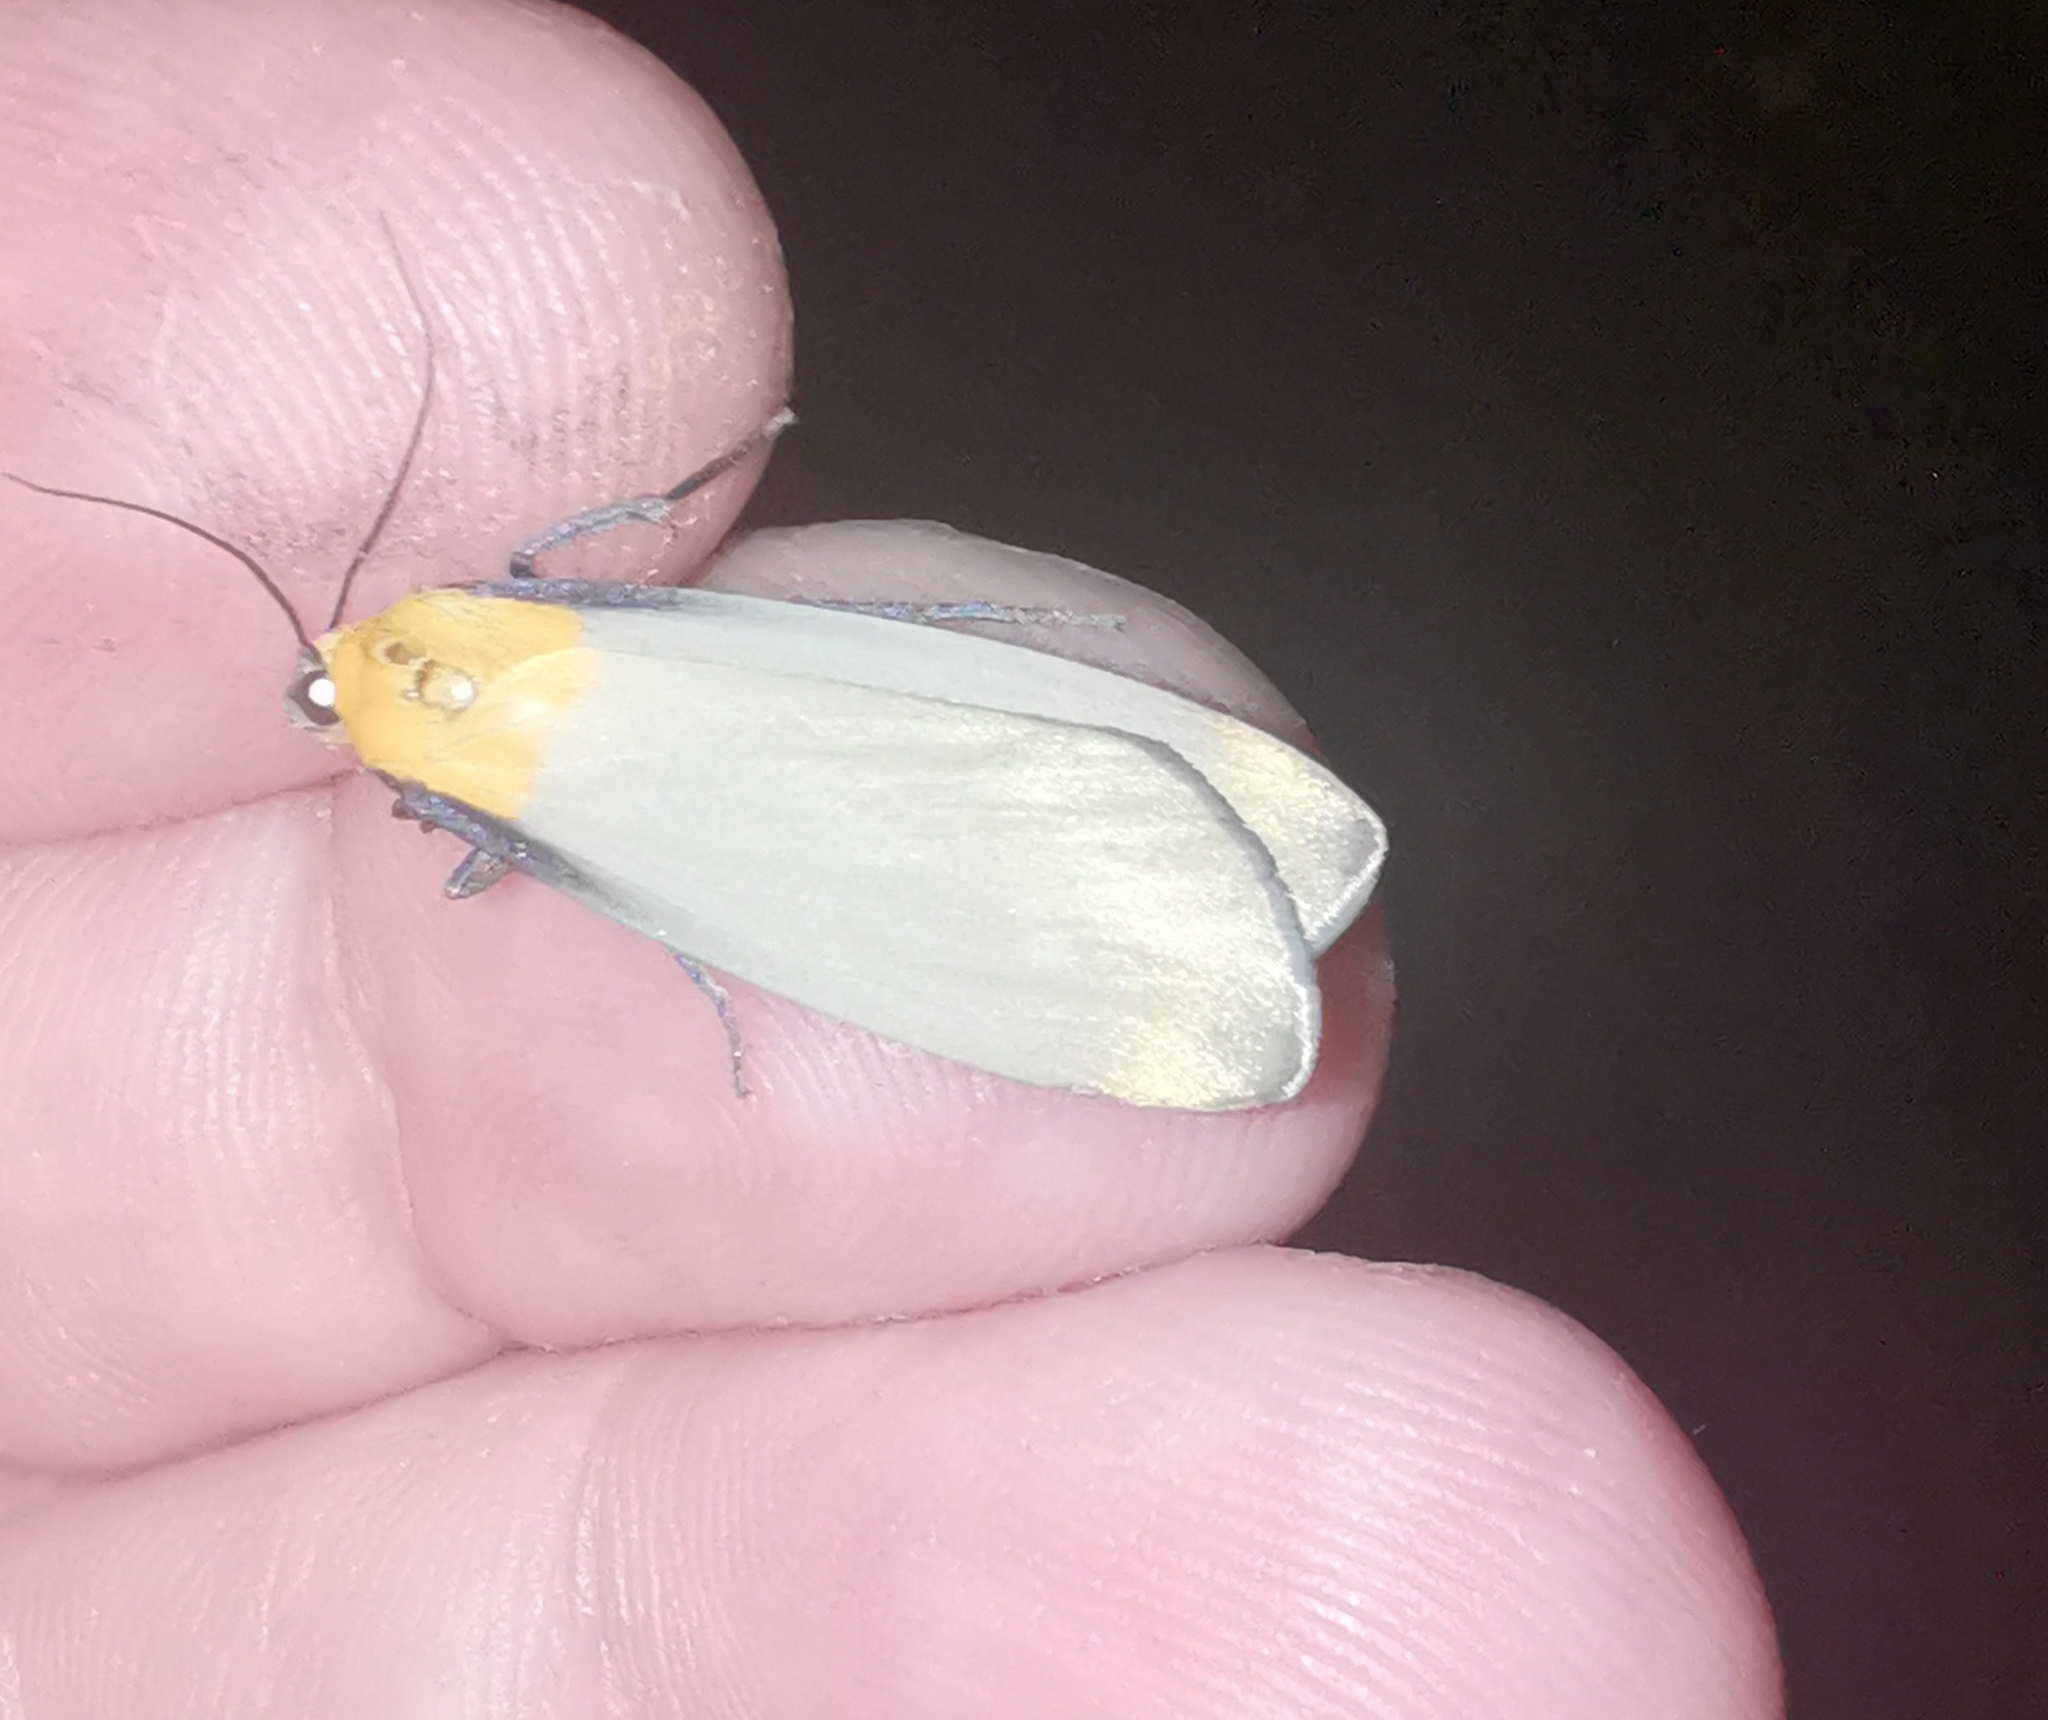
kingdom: Animalia
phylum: Arthropoda
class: Insecta
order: Lepidoptera
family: Erebidae
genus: Lithosia
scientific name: Lithosia quadra
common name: Four-spotted footman
